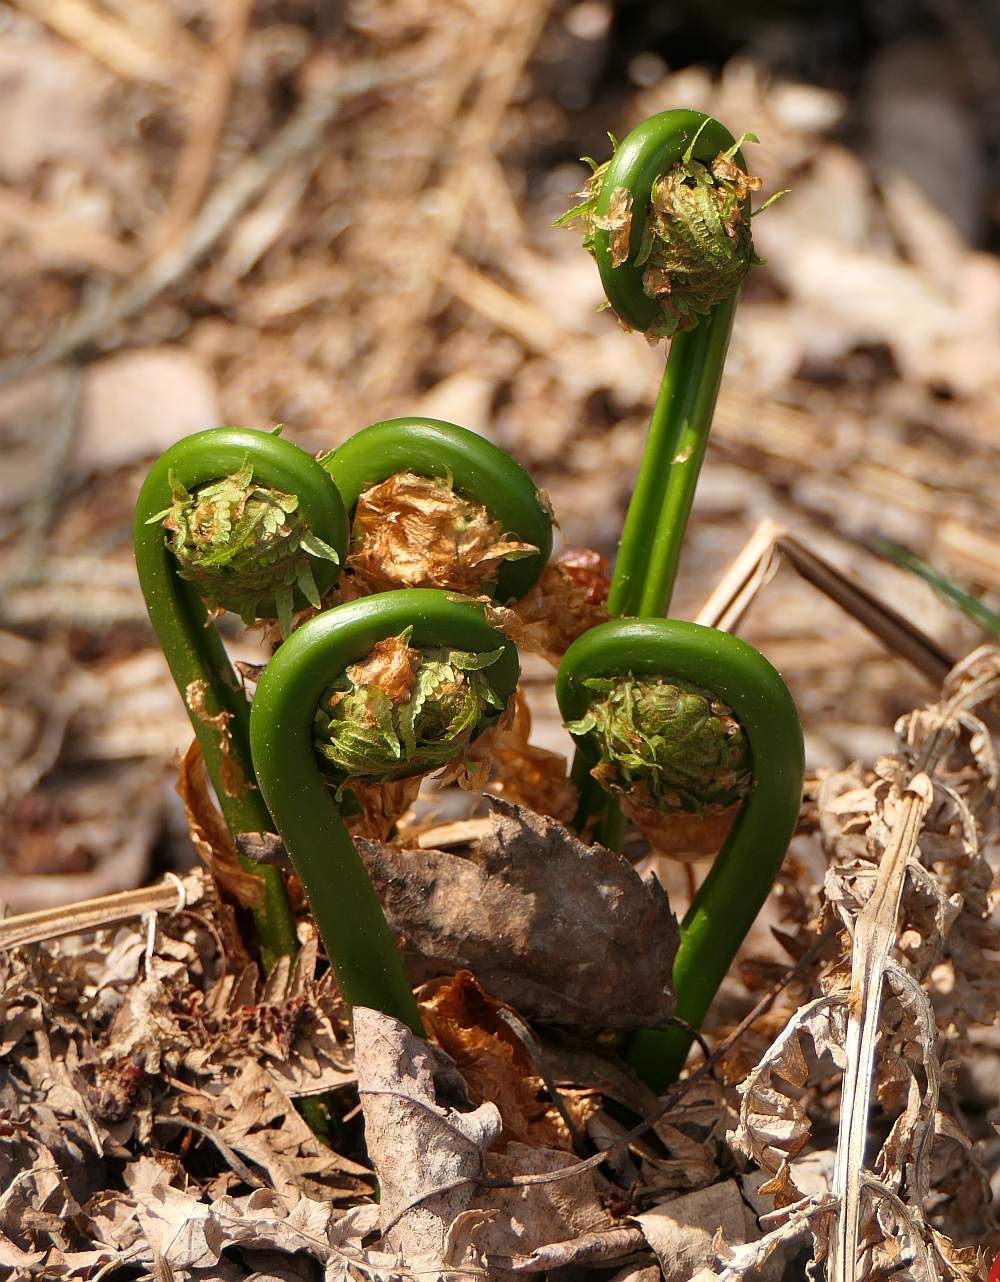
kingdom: Plantae
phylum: Tracheophyta
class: Polypodiopsida
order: Polypodiales
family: Onocleaceae
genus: Matteuccia
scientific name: Matteuccia struthiopteris
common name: Ostrich fern
